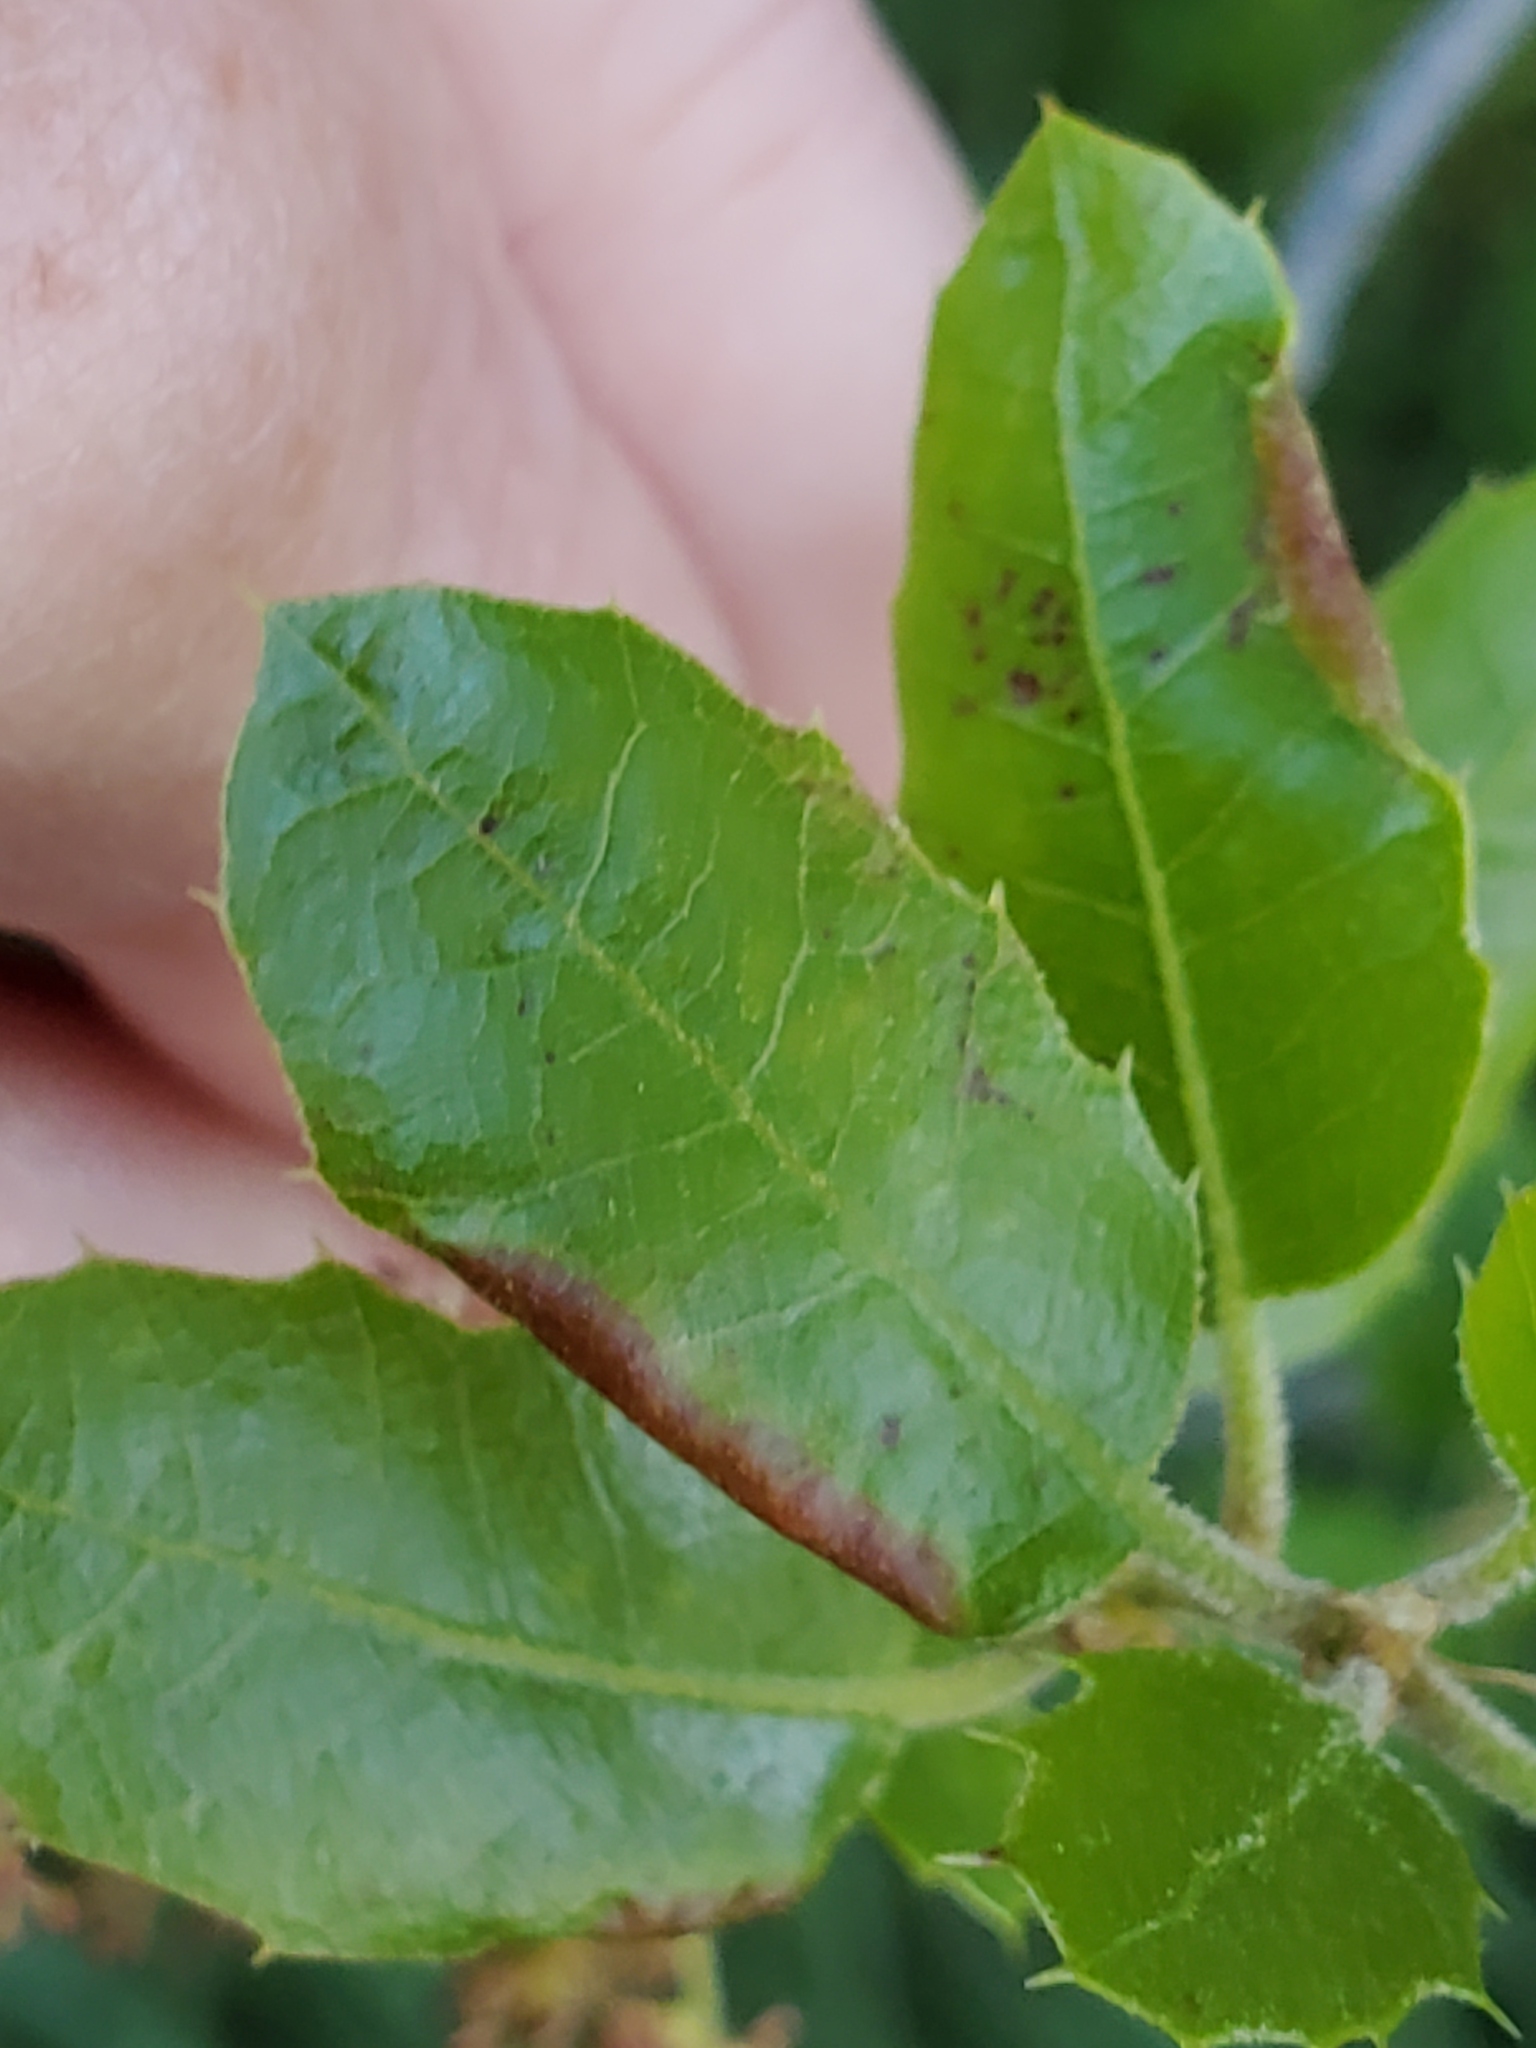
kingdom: Animalia
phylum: Arthropoda
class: Insecta
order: Hemiptera
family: Aphididae
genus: Stegophylla
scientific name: Stegophylla essigi
